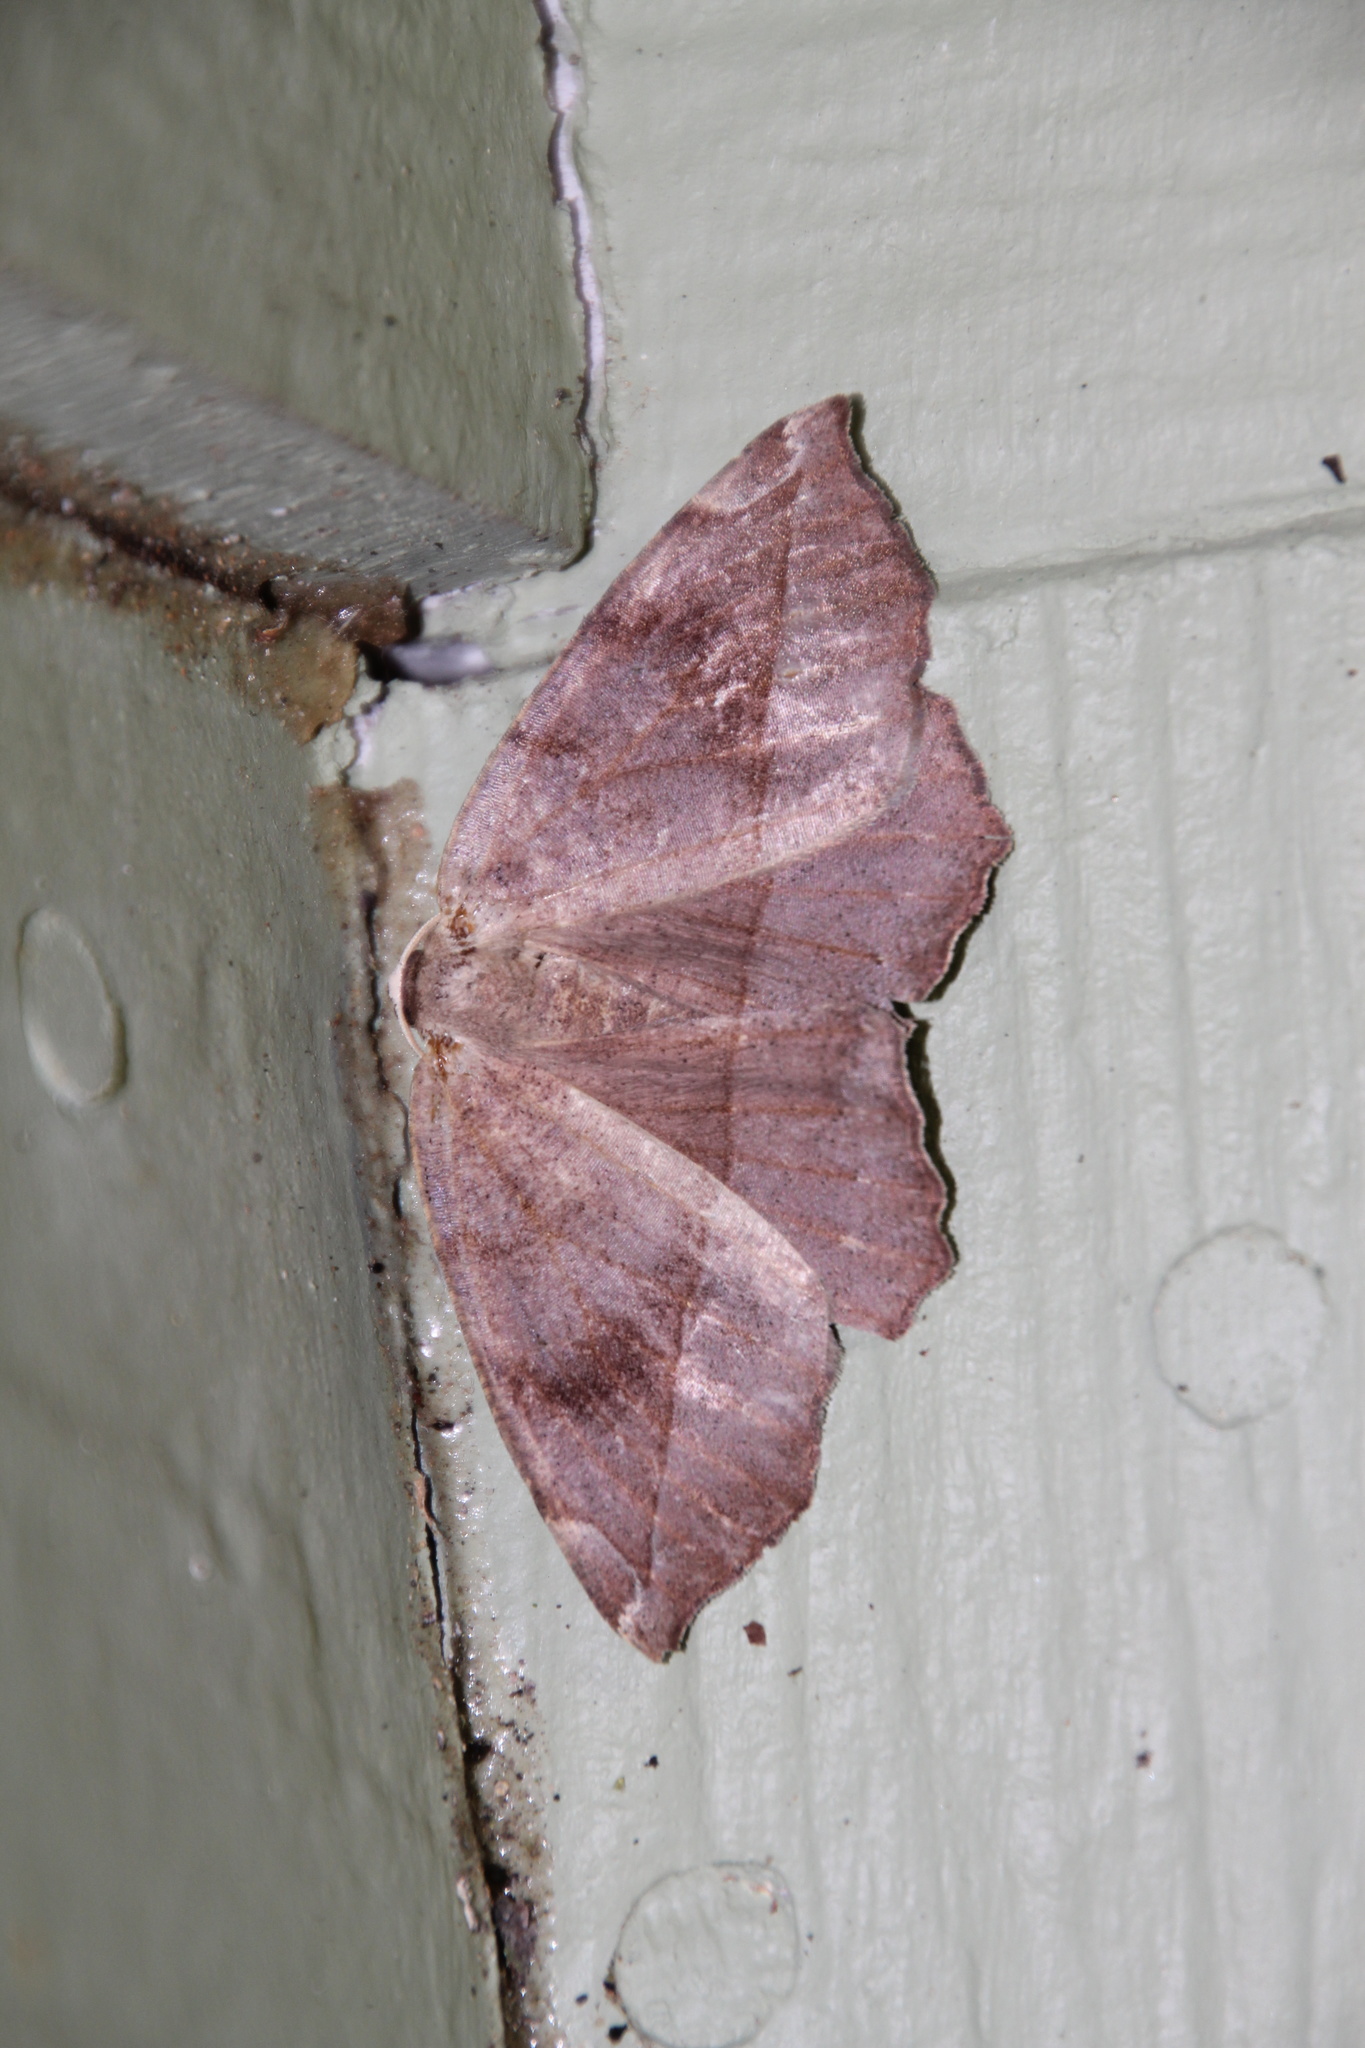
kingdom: Animalia
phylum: Arthropoda
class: Insecta
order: Lepidoptera
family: Geometridae
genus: Eutrapela
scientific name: Eutrapela clemataria
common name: Curved-toothed geometer
